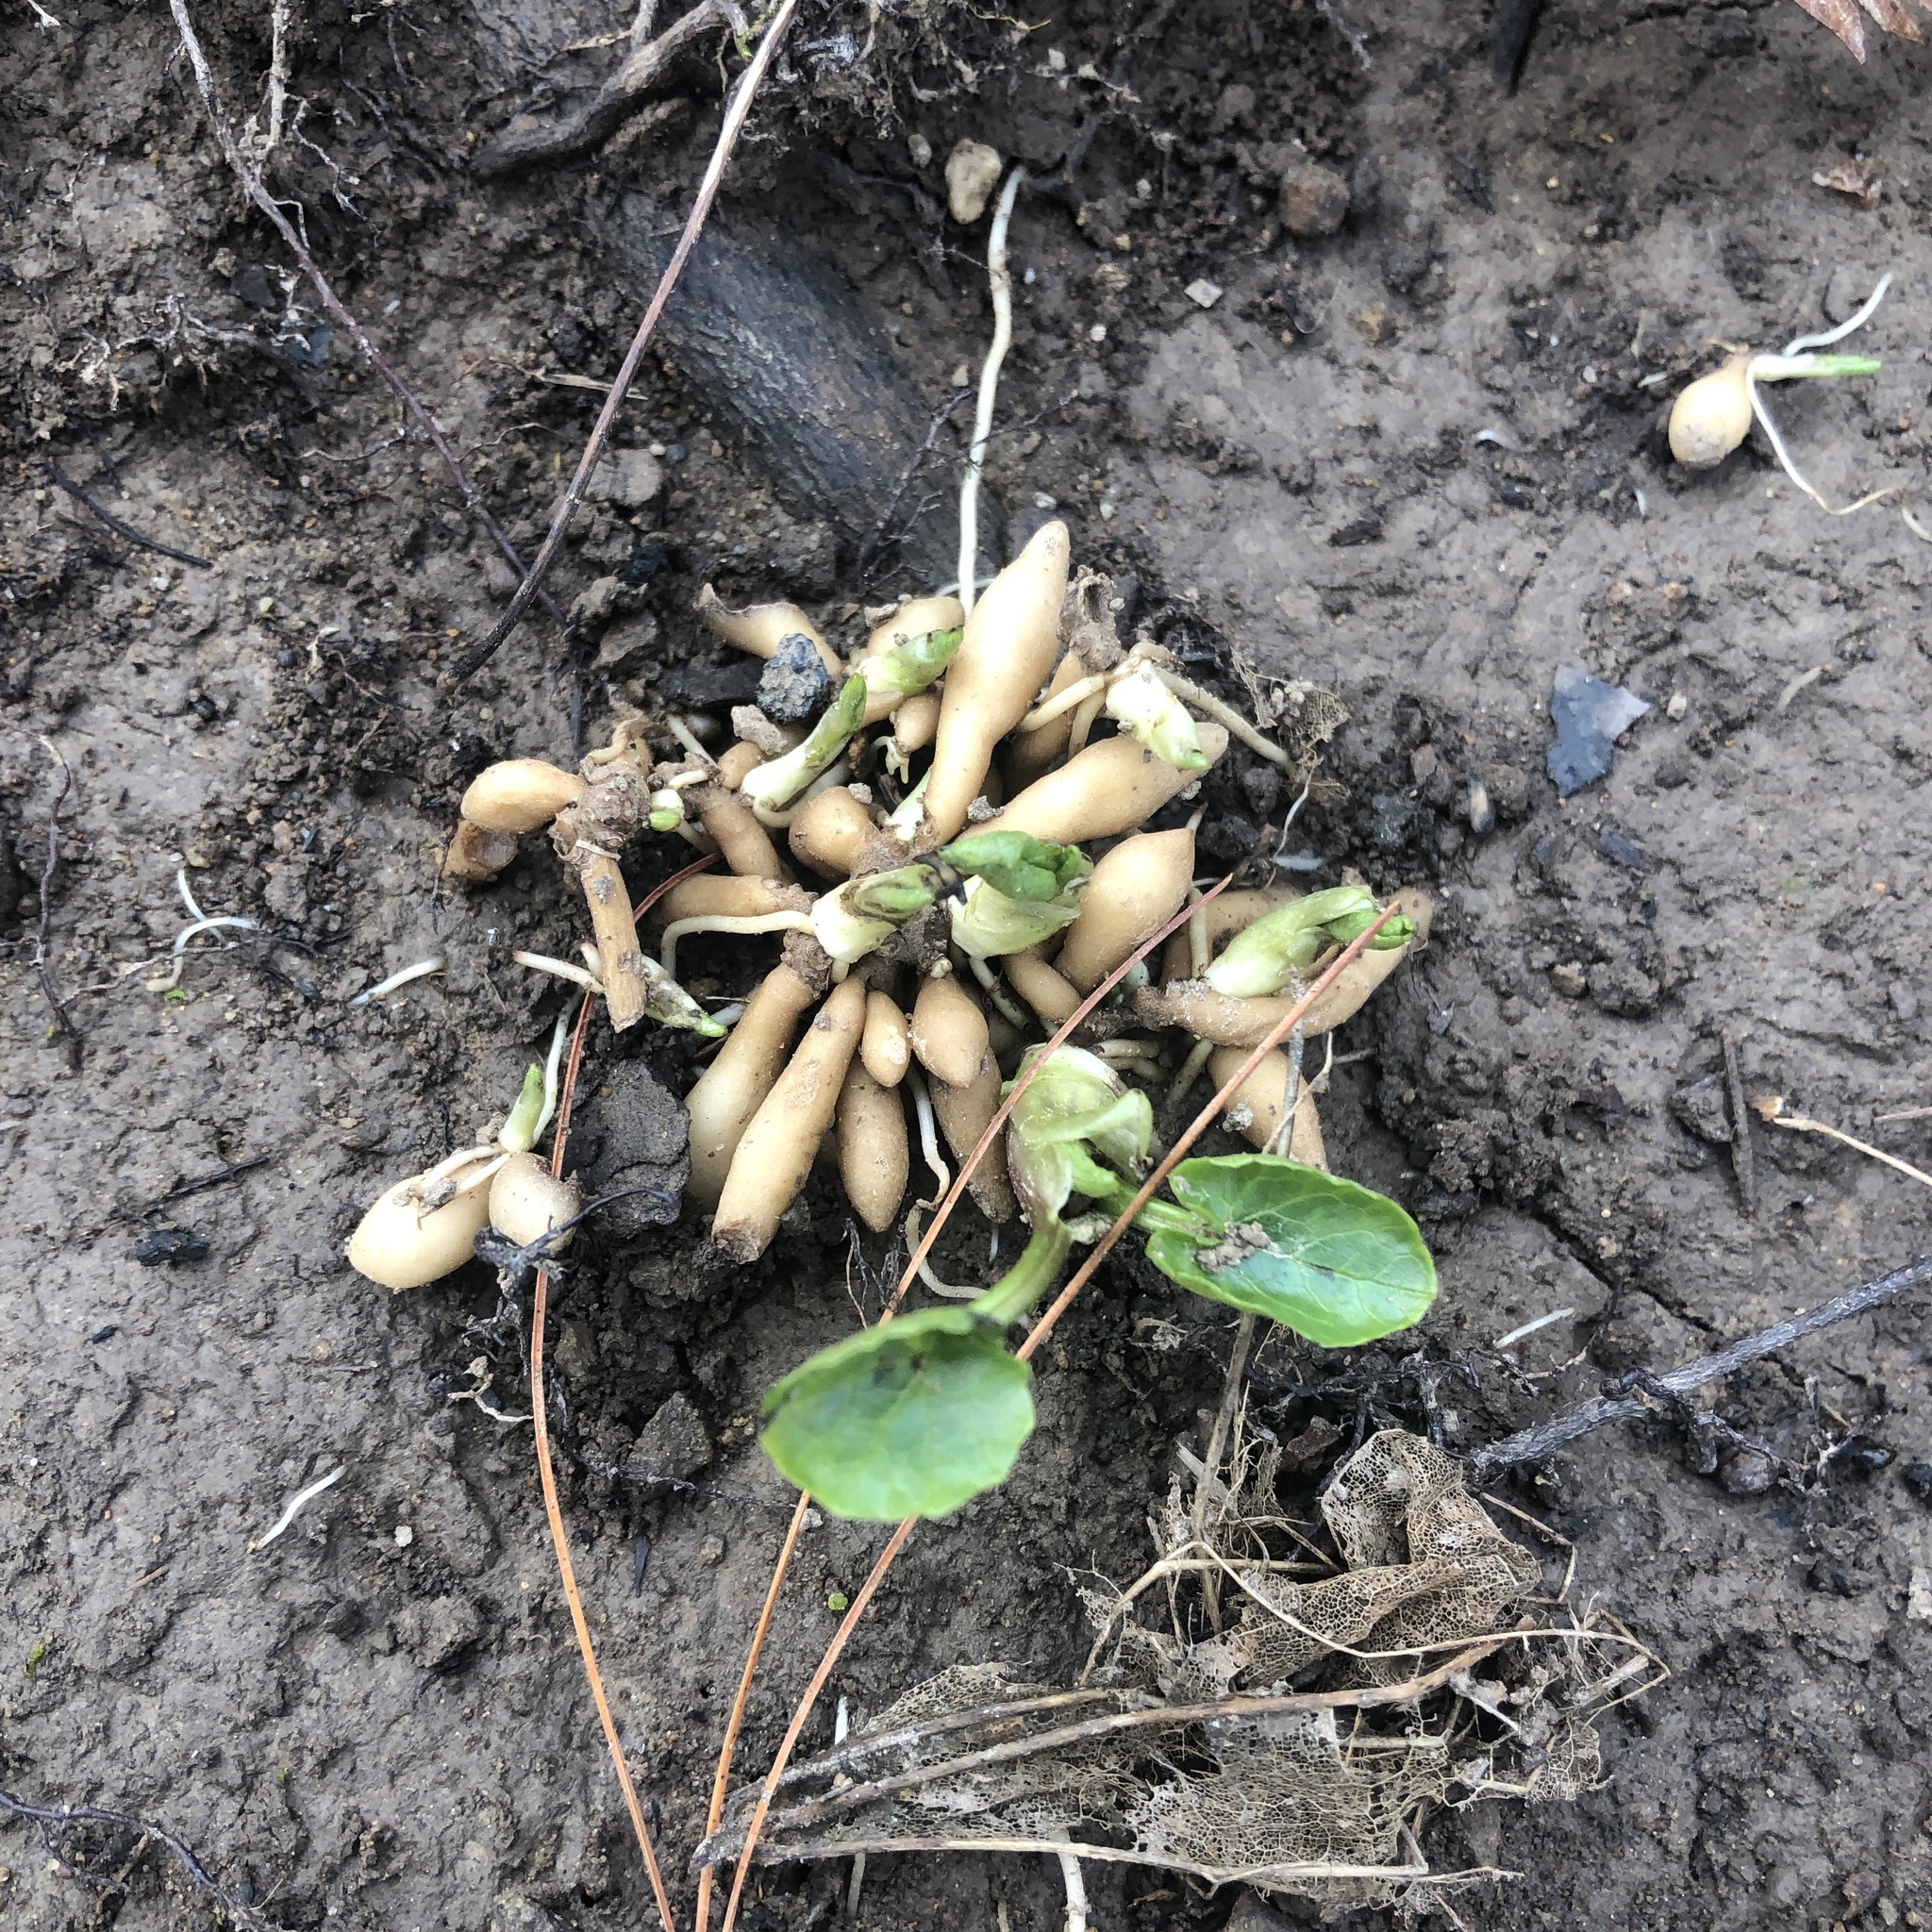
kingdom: Plantae
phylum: Tracheophyta
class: Magnoliopsida
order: Ranunculales
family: Ranunculaceae
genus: Ficaria
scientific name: Ficaria verna
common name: Lesser celandine
